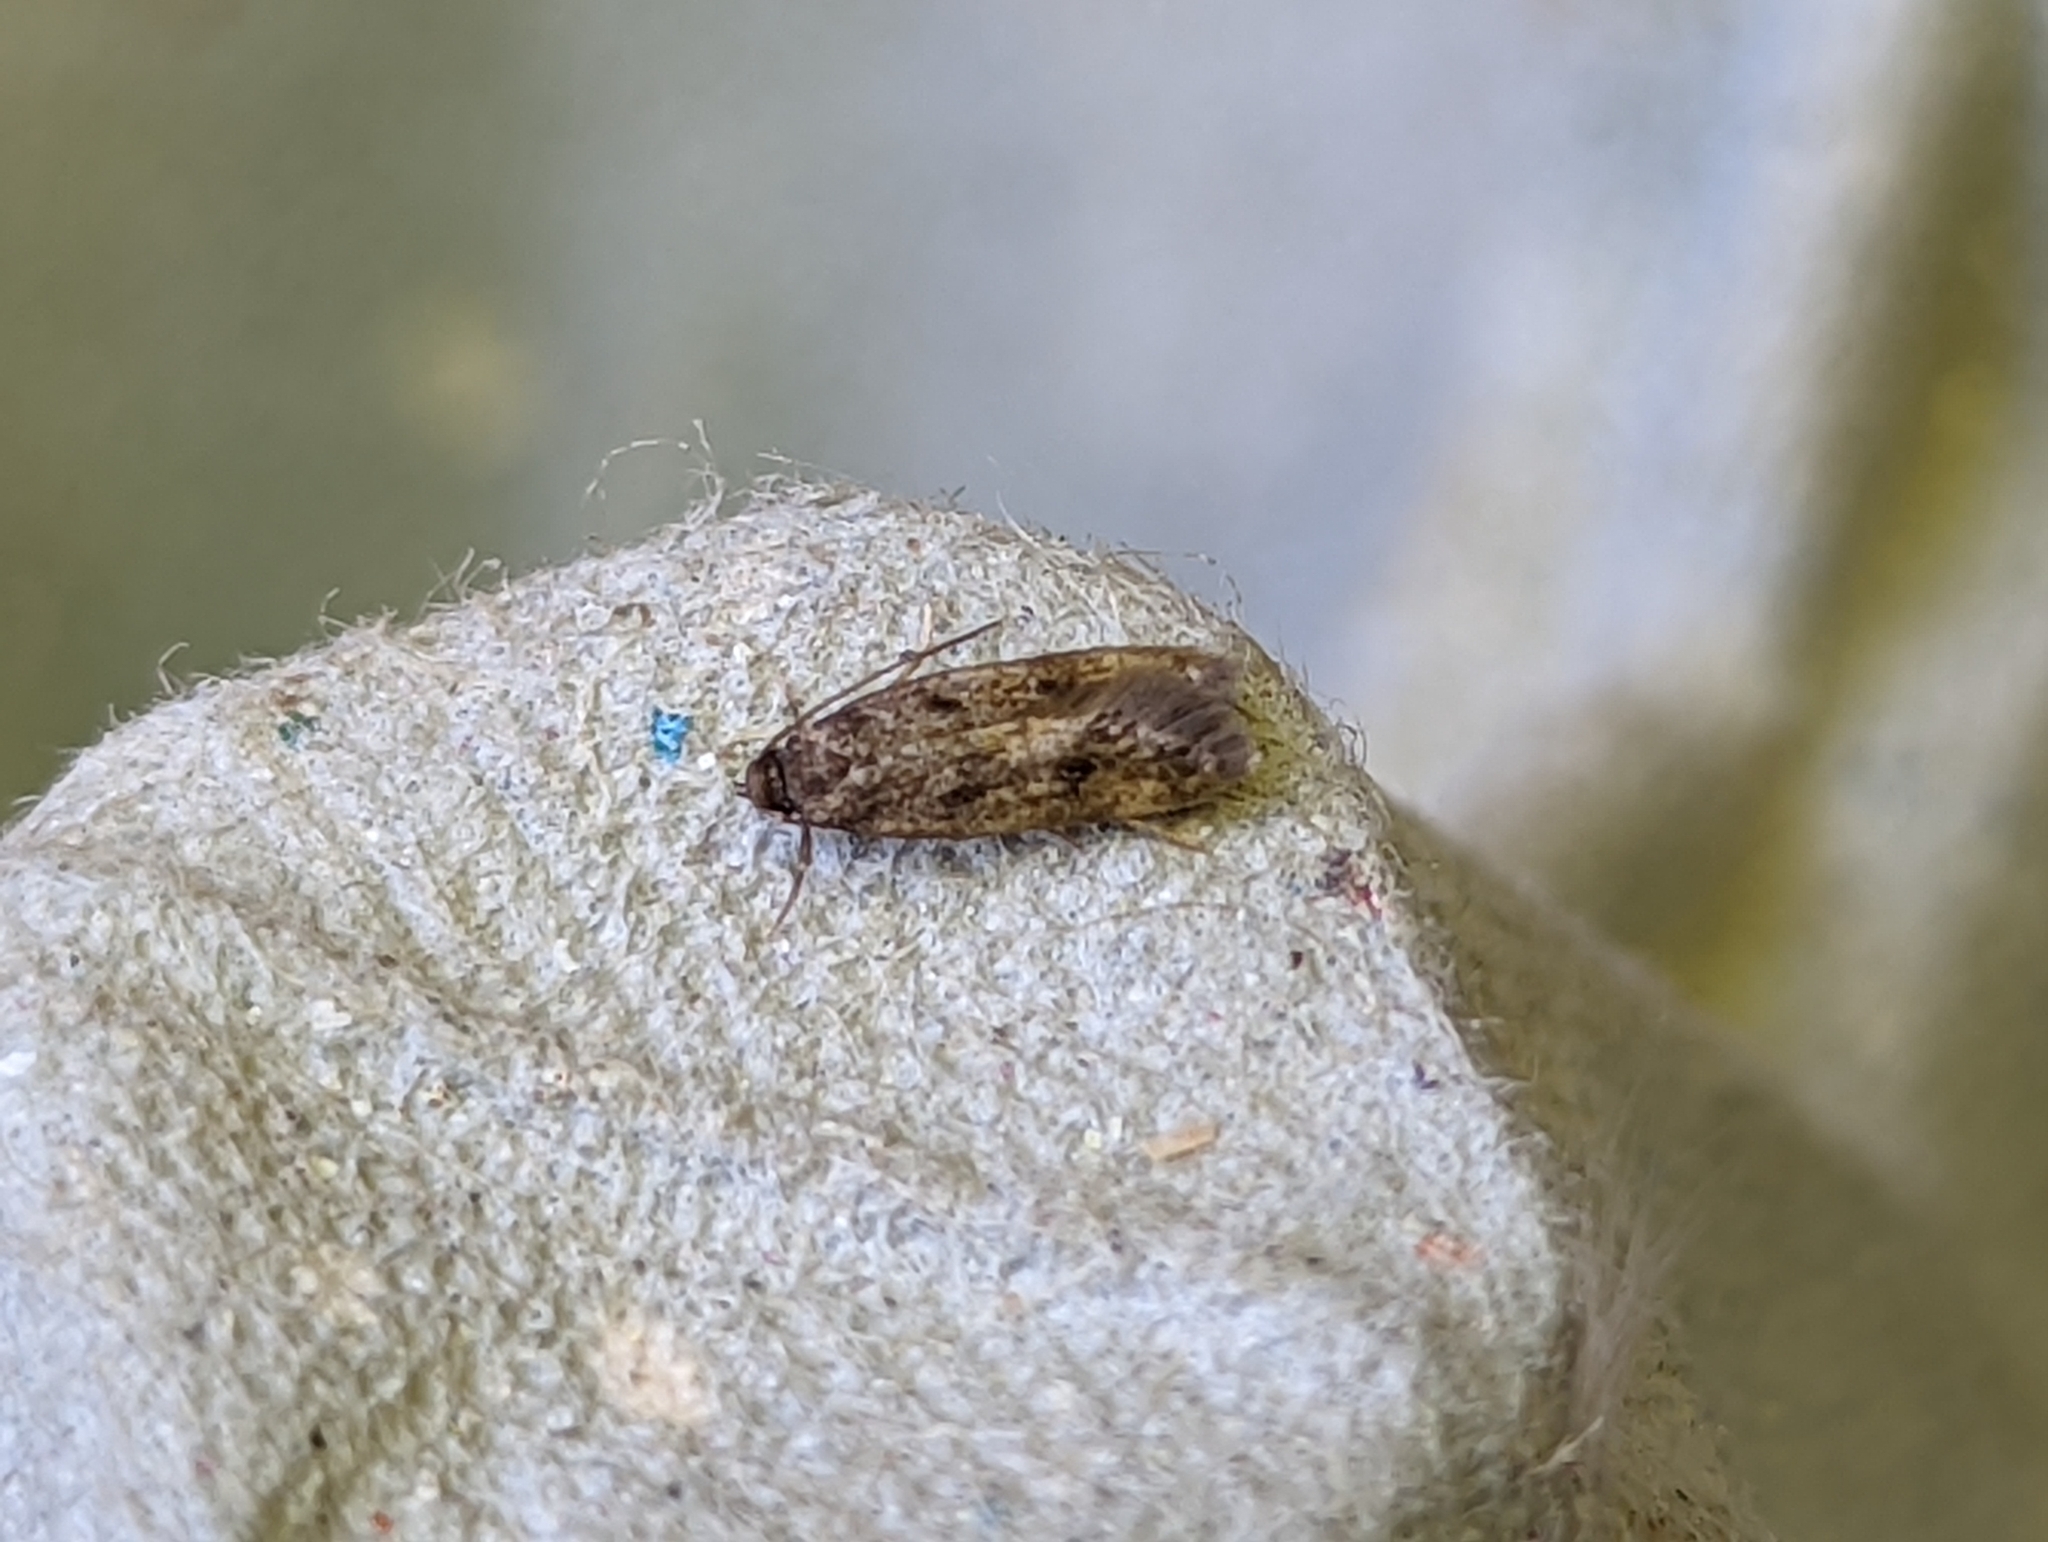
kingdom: Animalia
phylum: Arthropoda
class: Insecta
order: Lepidoptera
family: Oecophoridae
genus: Borkhausenia
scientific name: Borkhausenia fuscescens
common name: Small dingy tubic
